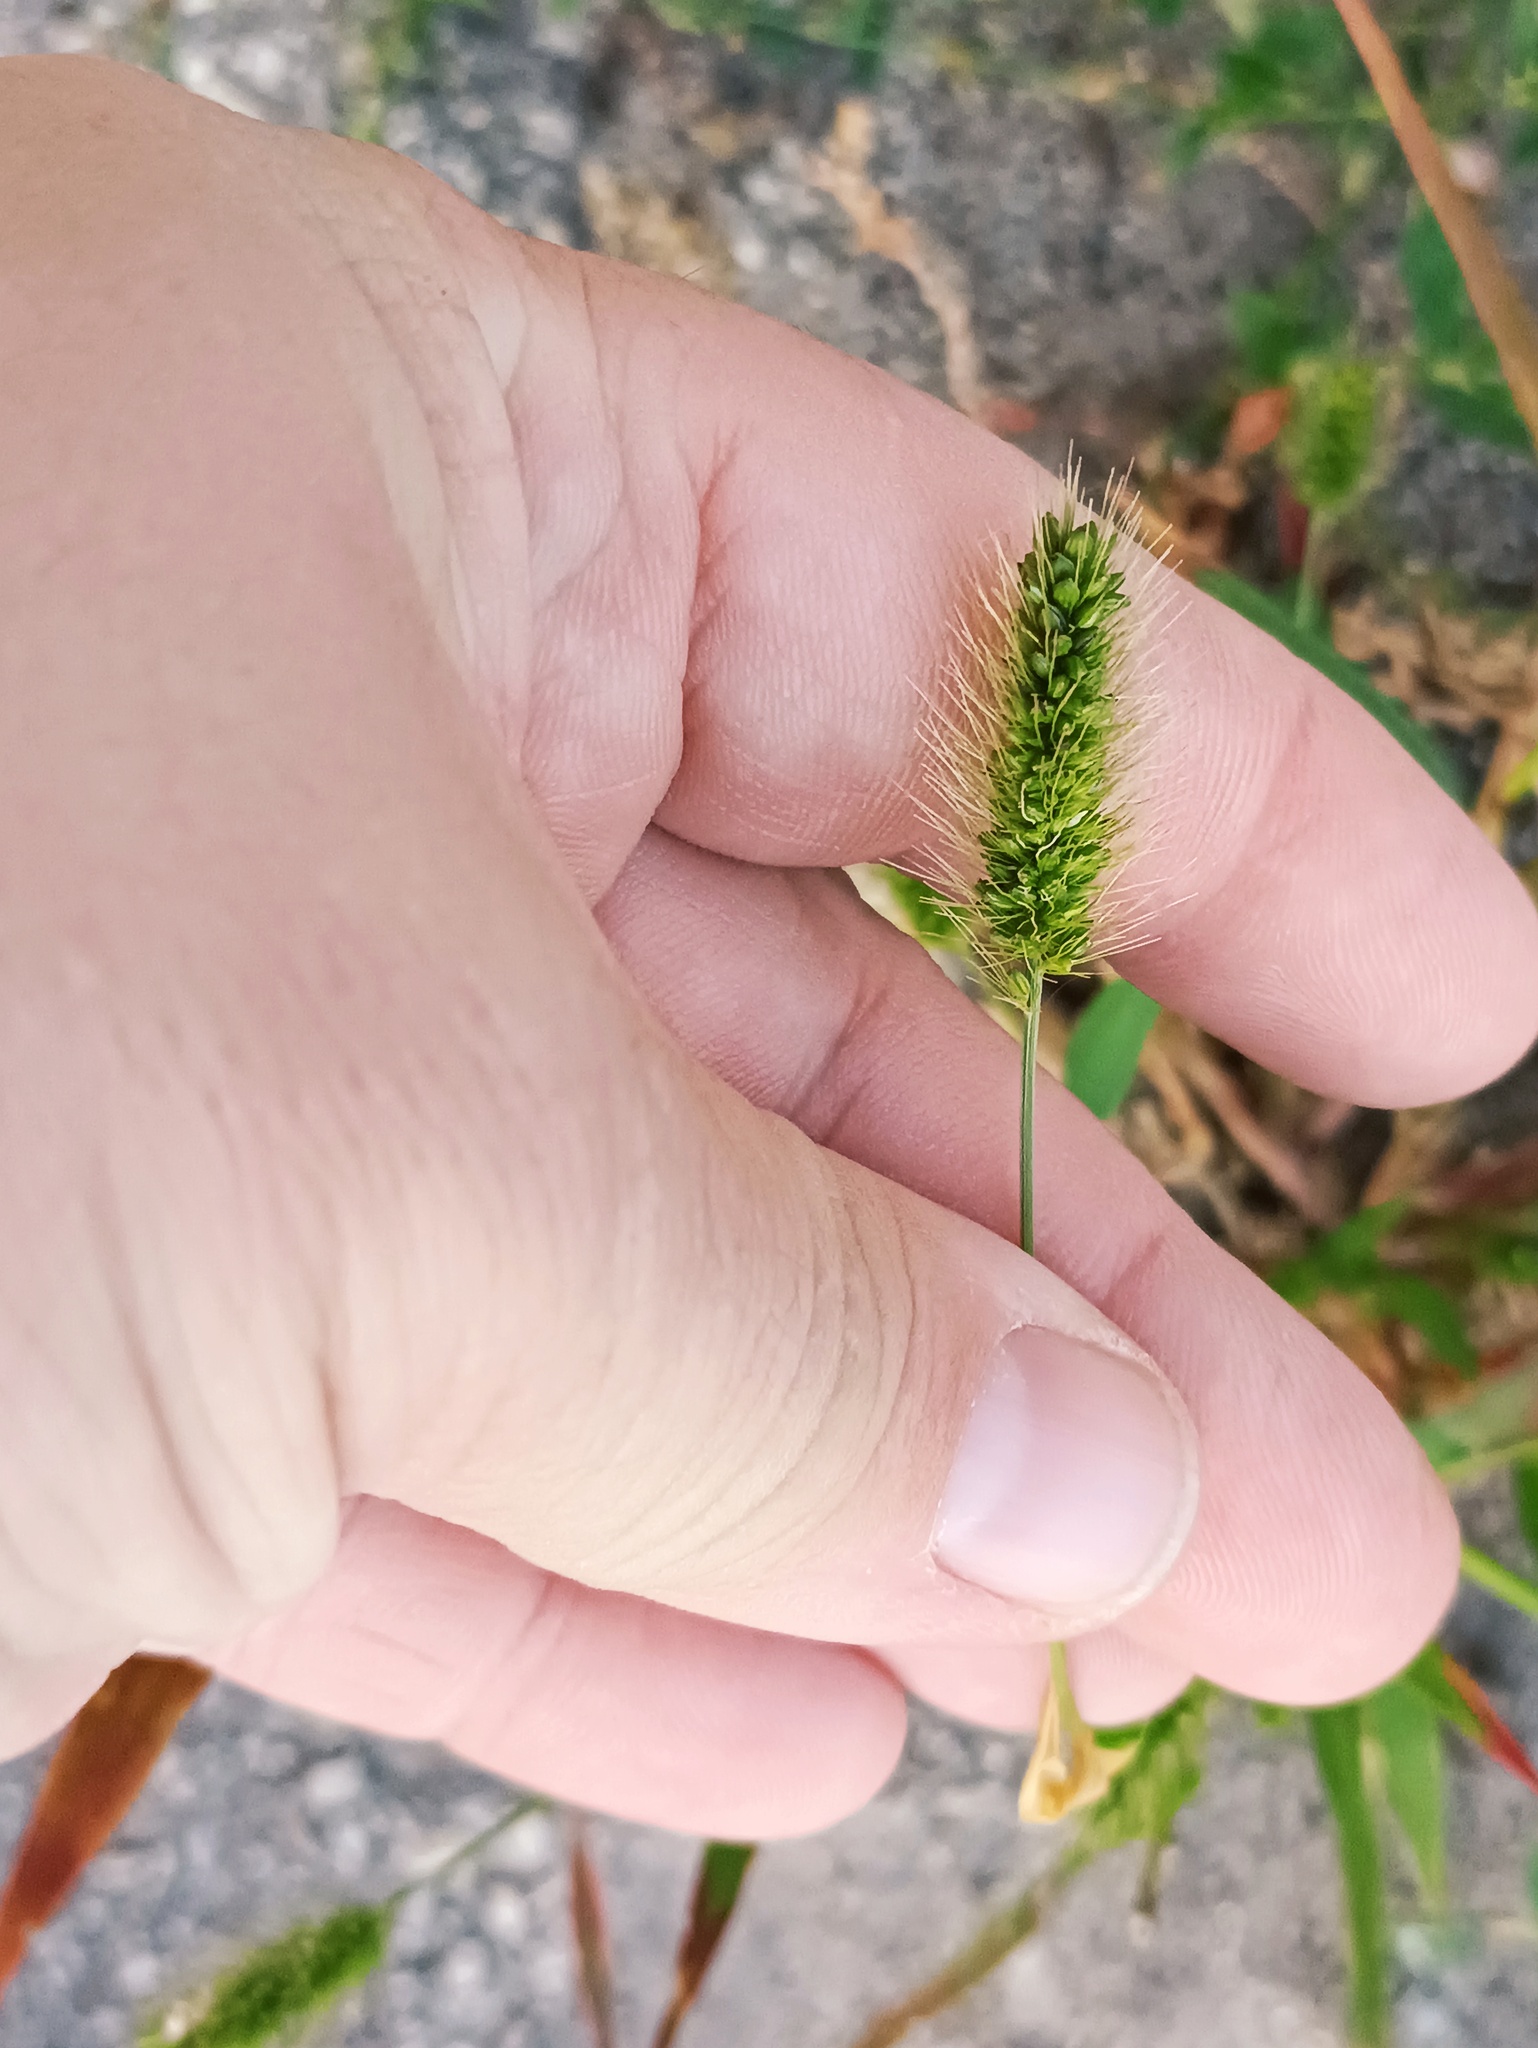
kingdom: Plantae
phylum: Tracheophyta
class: Liliopsida
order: Poales
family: Poaceae
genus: Setaria
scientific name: Setaria viridis
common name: Green bristlegrass
